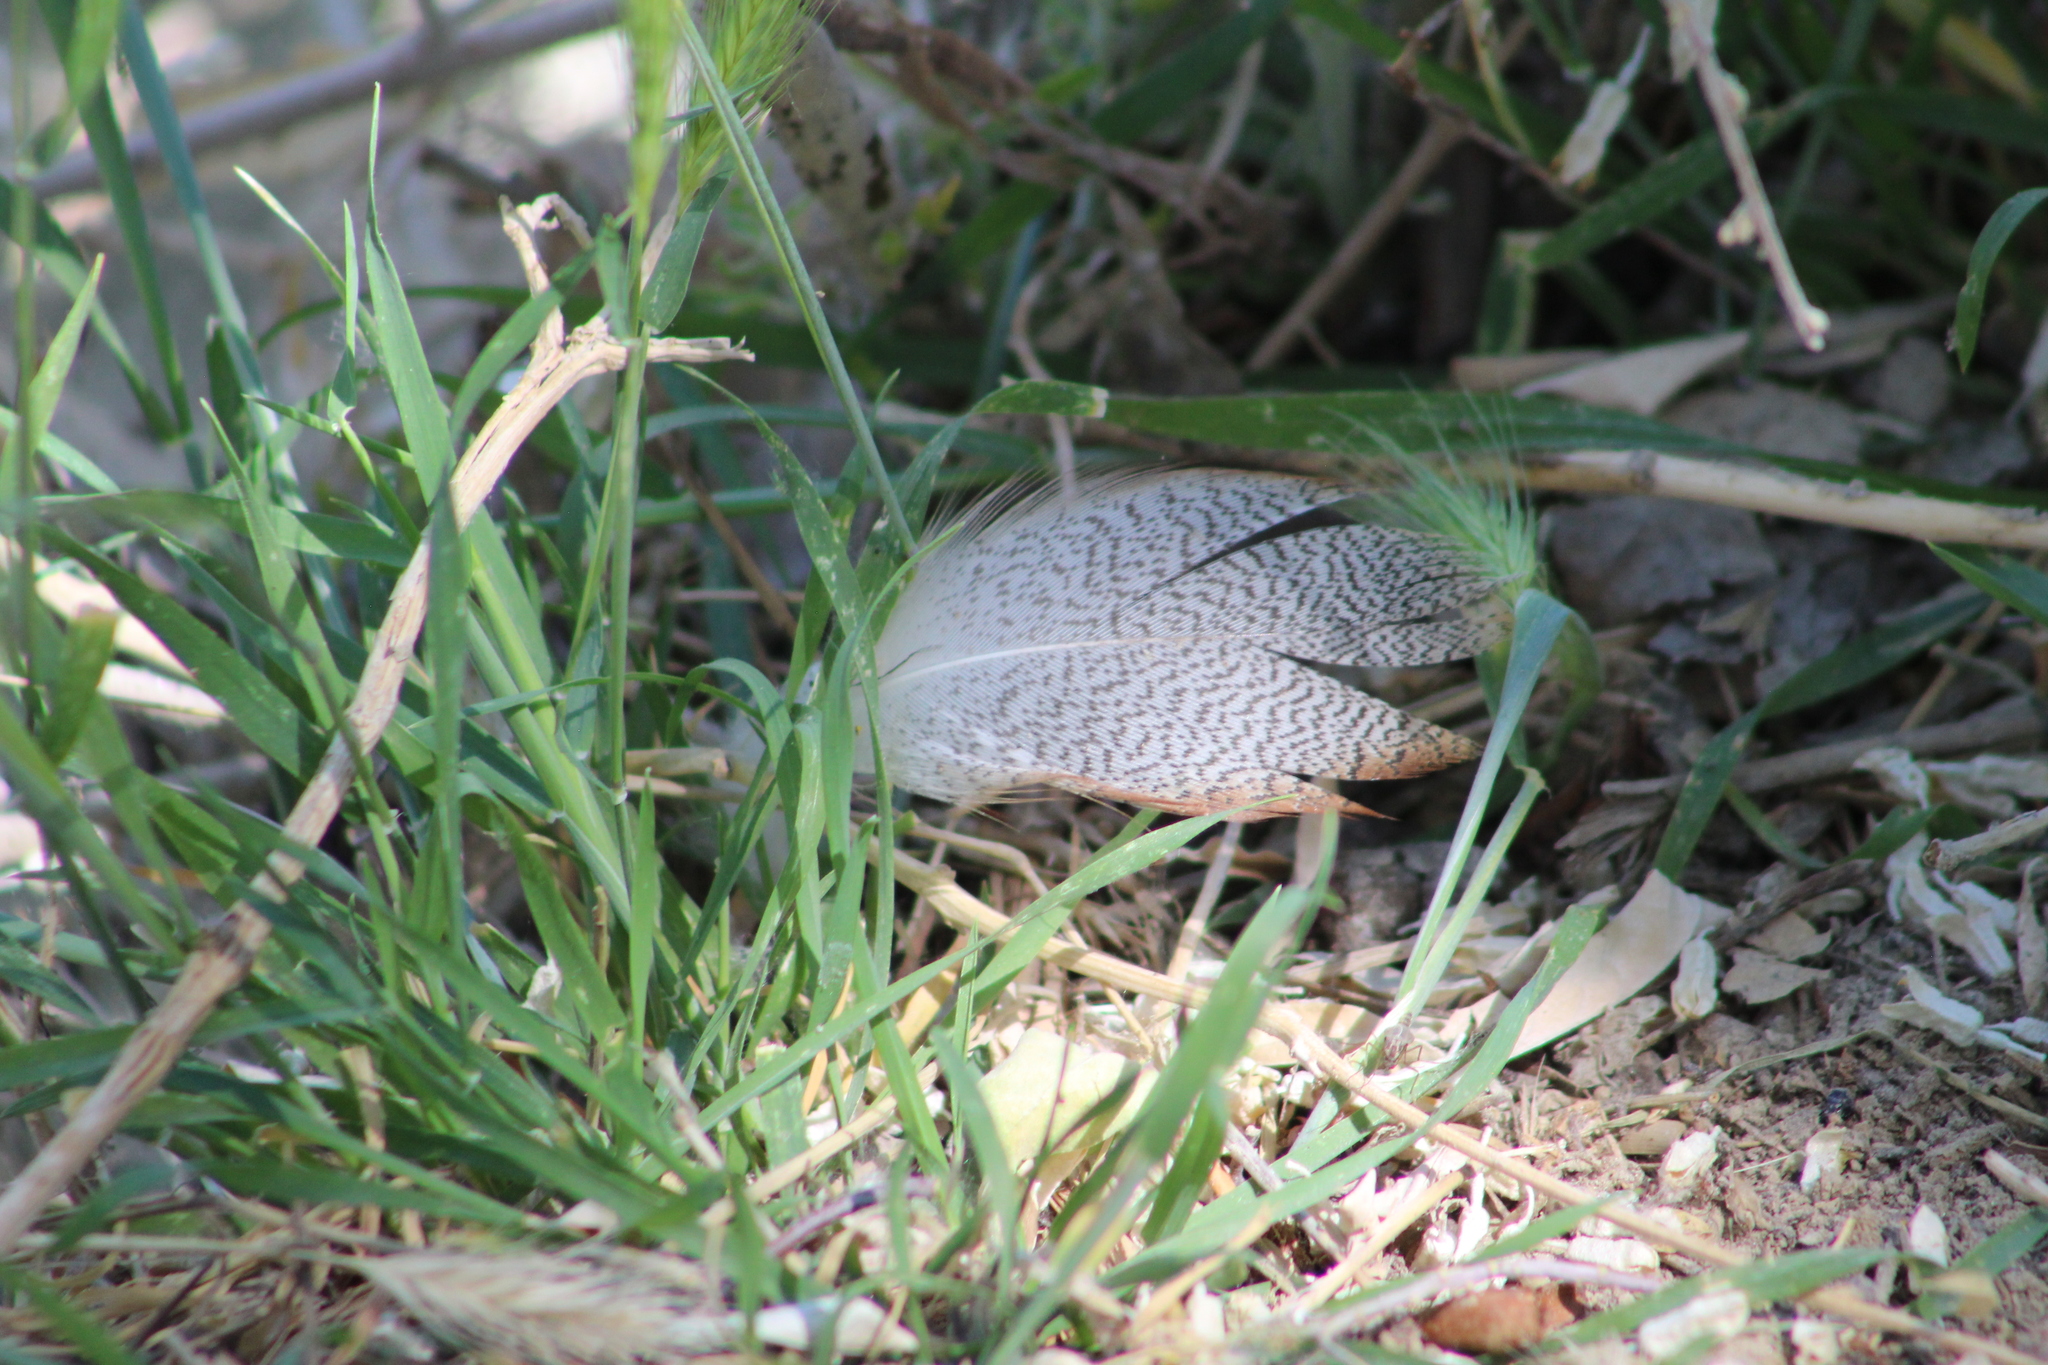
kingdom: Animalia
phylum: Chordata
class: Aves
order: Anseriformes
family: Anatidae
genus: Anas
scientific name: Anas platyrhynchos
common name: Mallard
